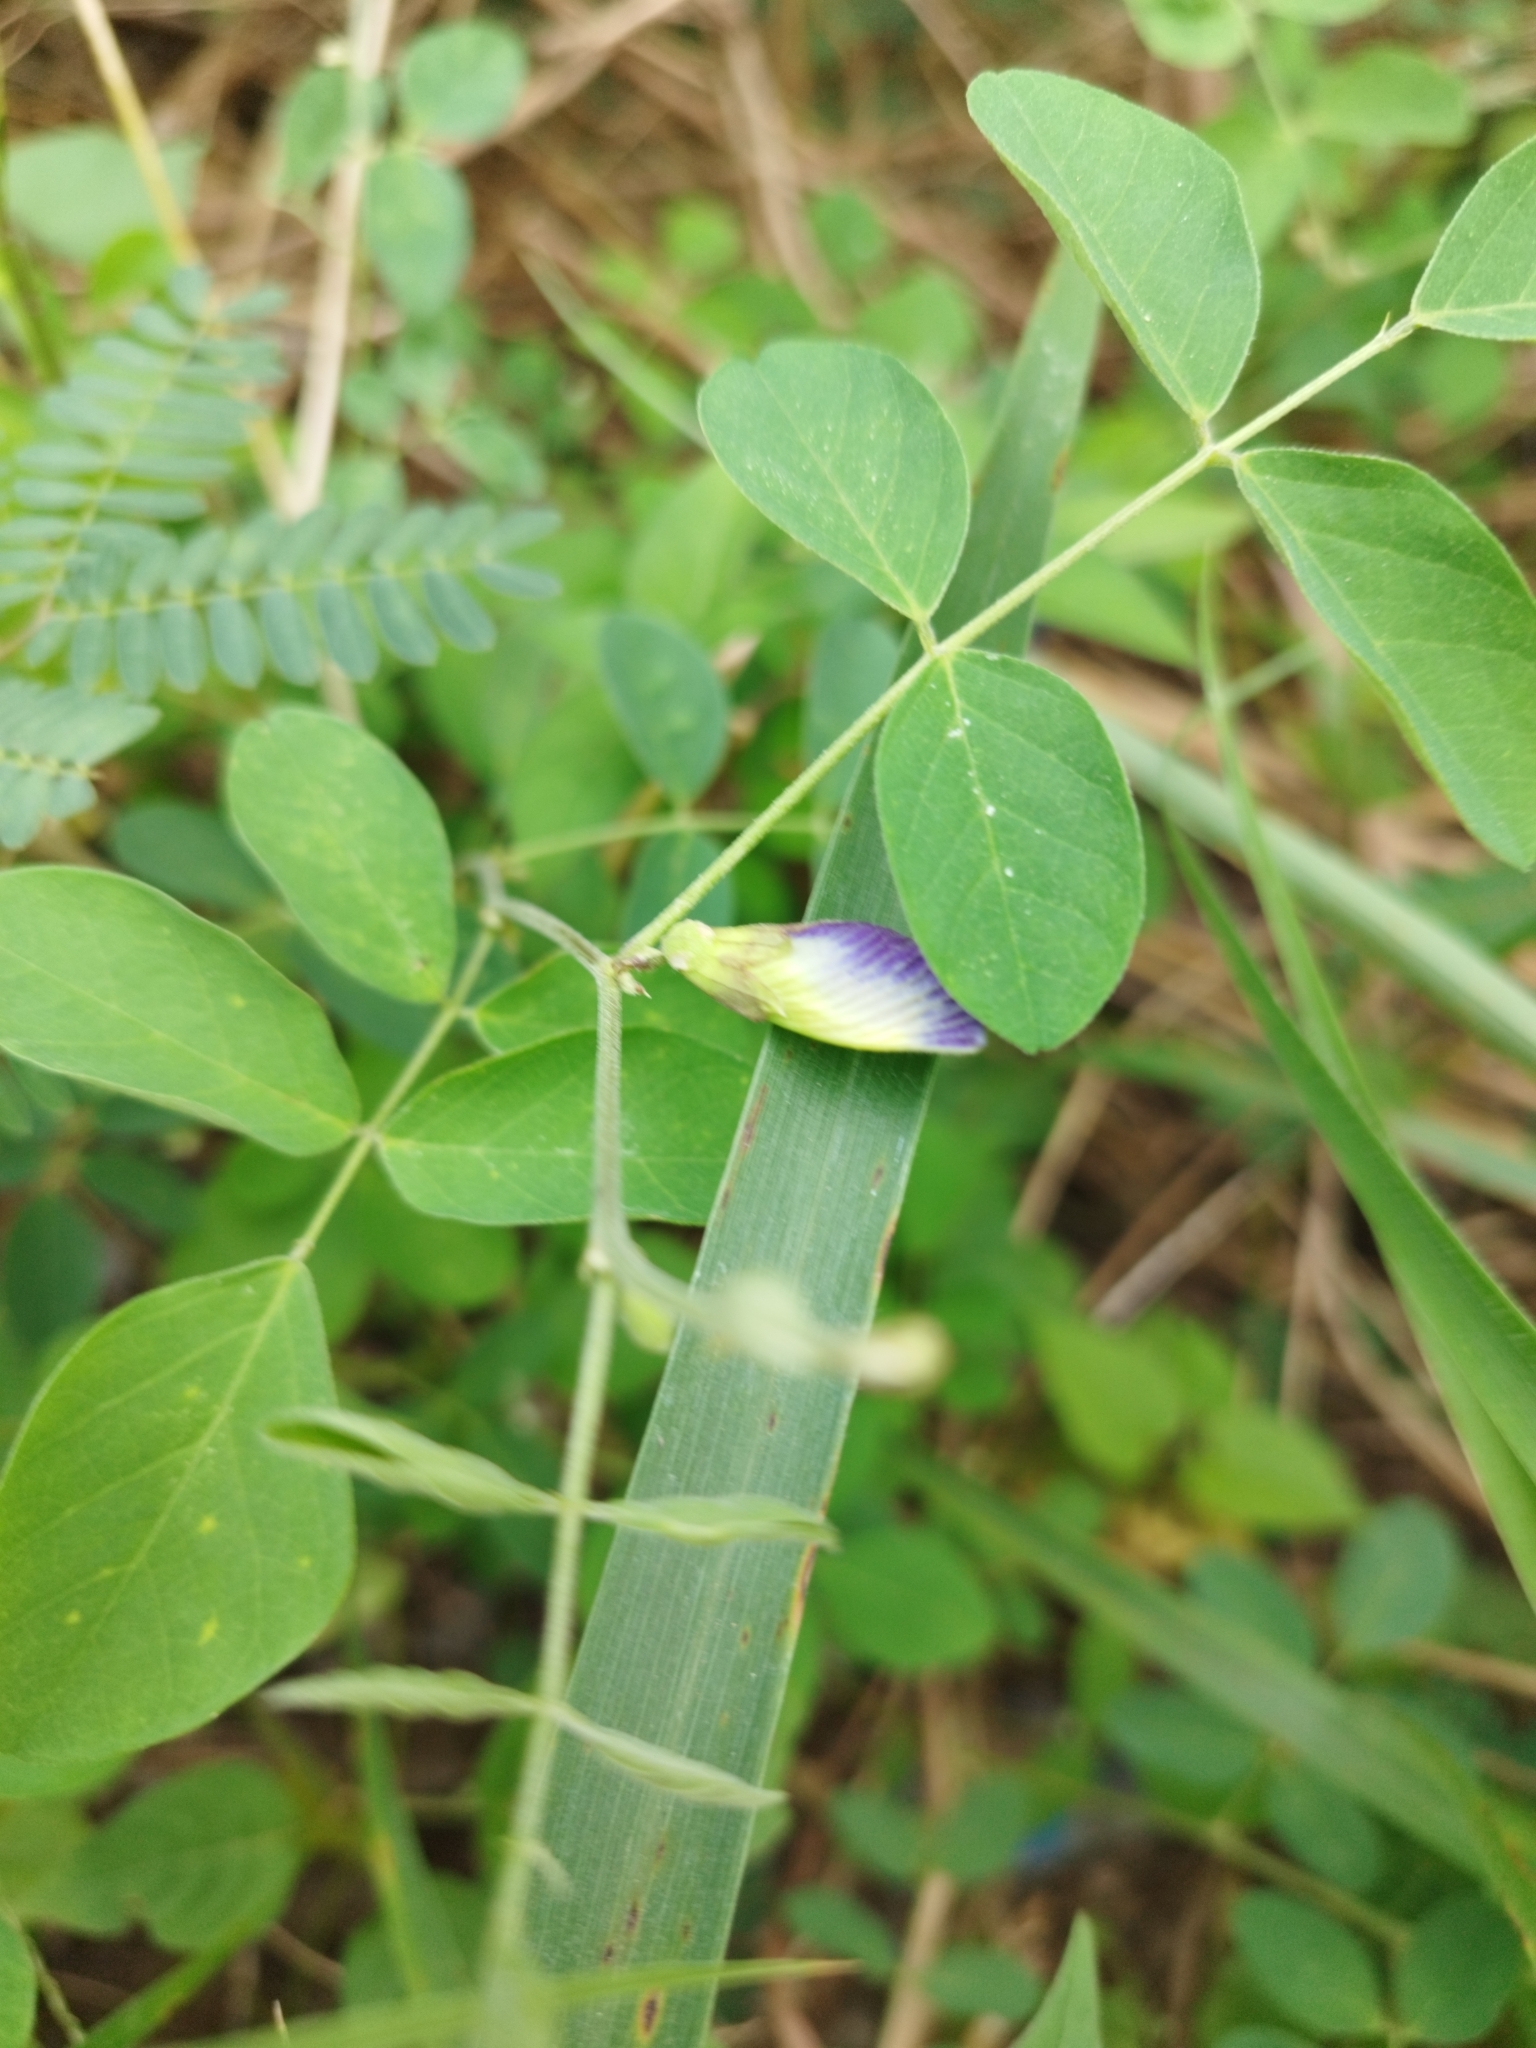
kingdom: Plantae
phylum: Tracheophyta
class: Magnoliopsida
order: Fabales
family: Fabaceae
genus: Clitoria
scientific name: Clitoria ternatea
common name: Asian pigeonwings
